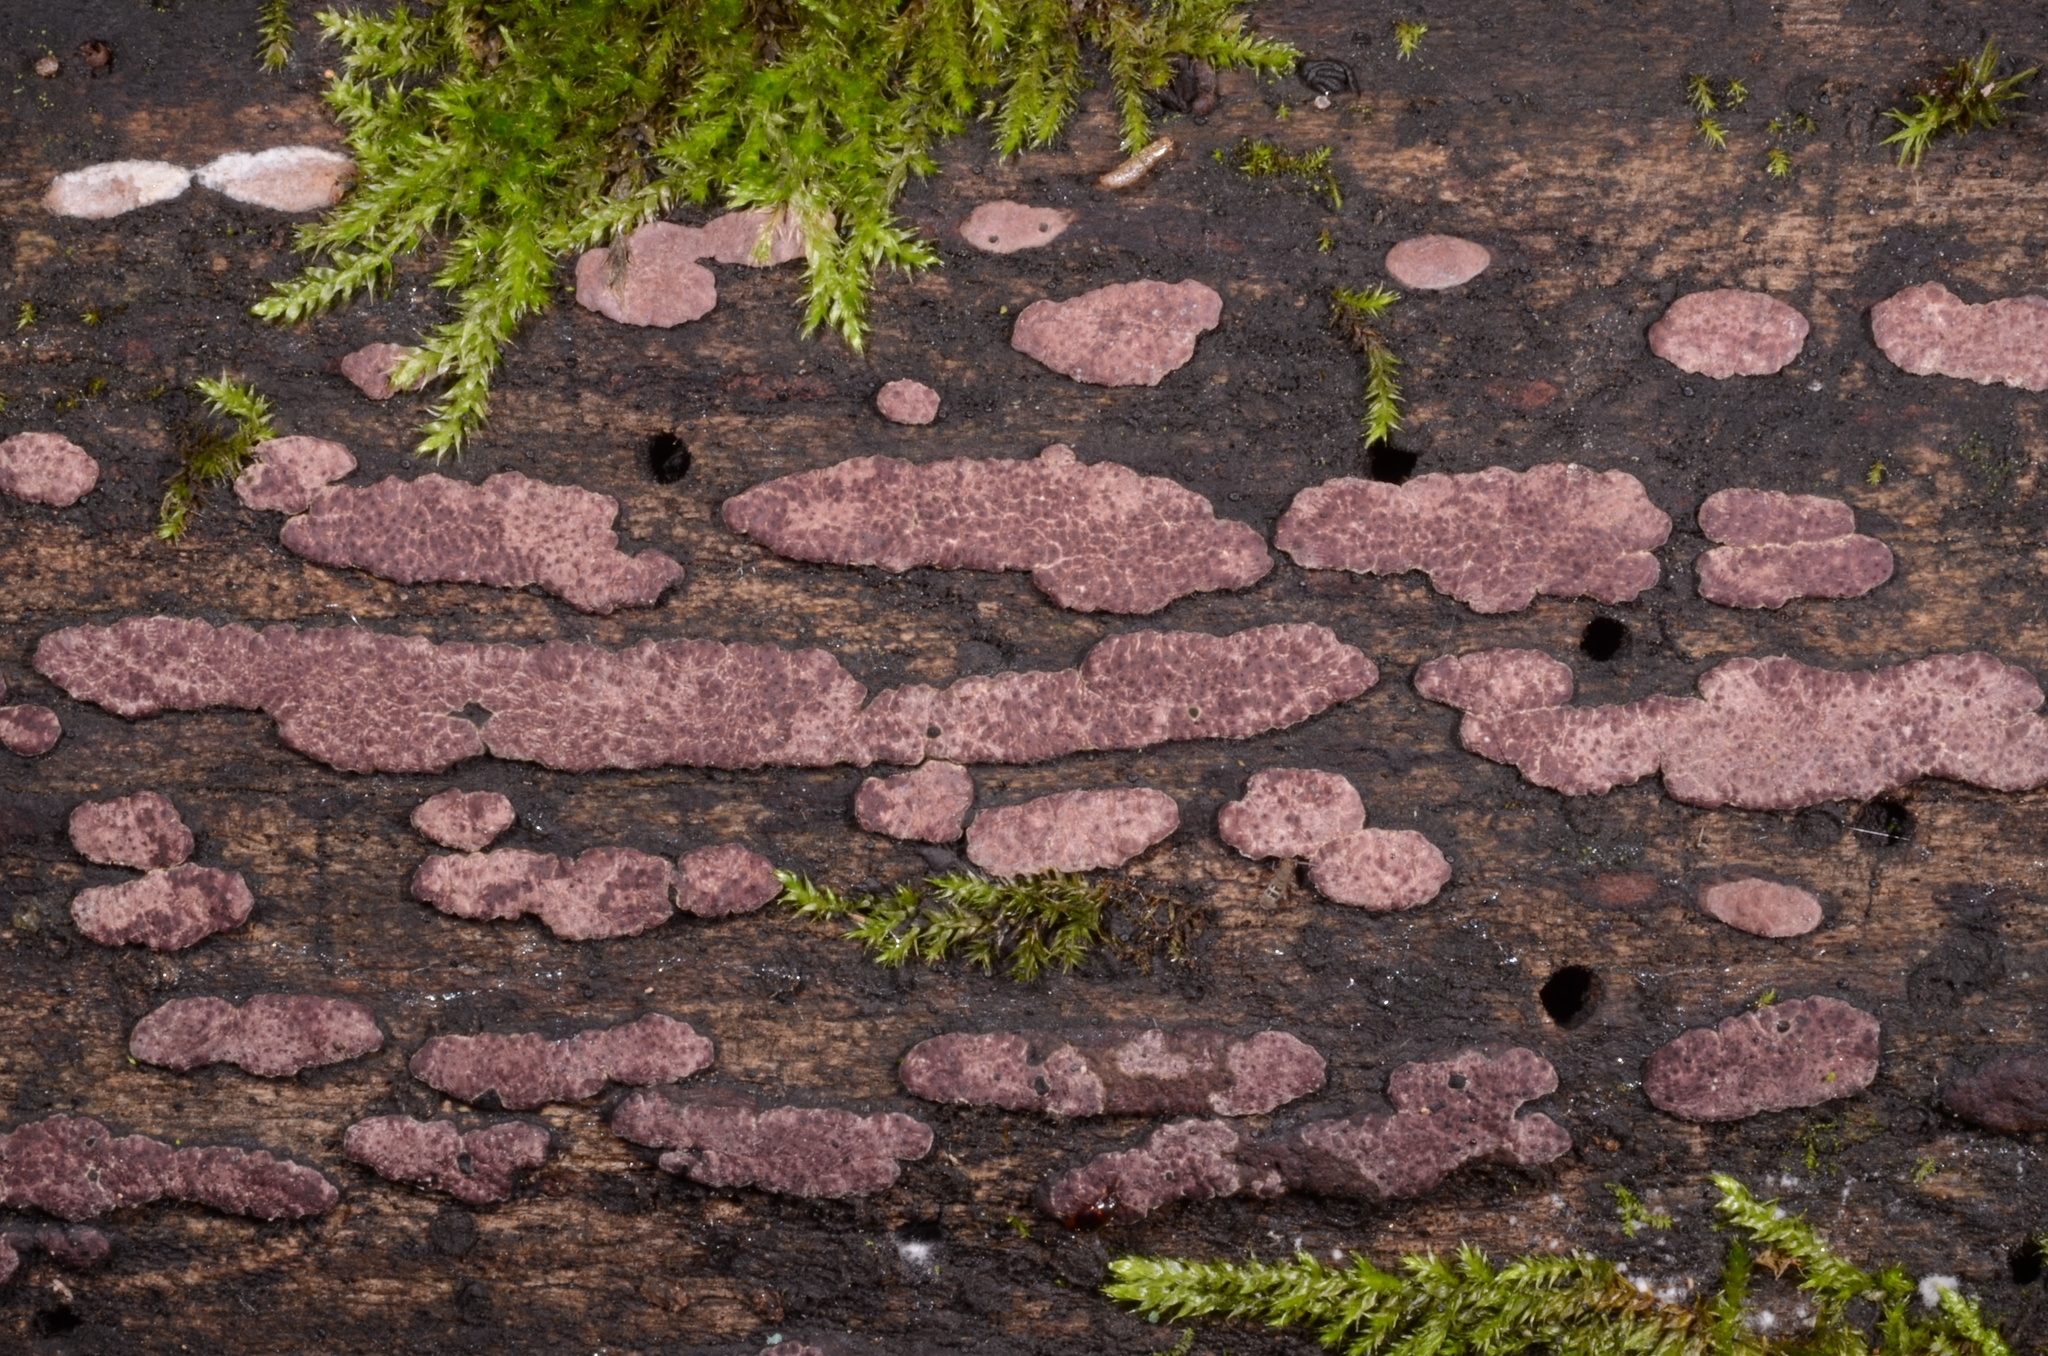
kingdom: Fungi
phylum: Ascomycota
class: Sordariomycetes
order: Xylariales
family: Hypoxylaceae
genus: Hypoxylon
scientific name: Hypoxylon vogesiacum
